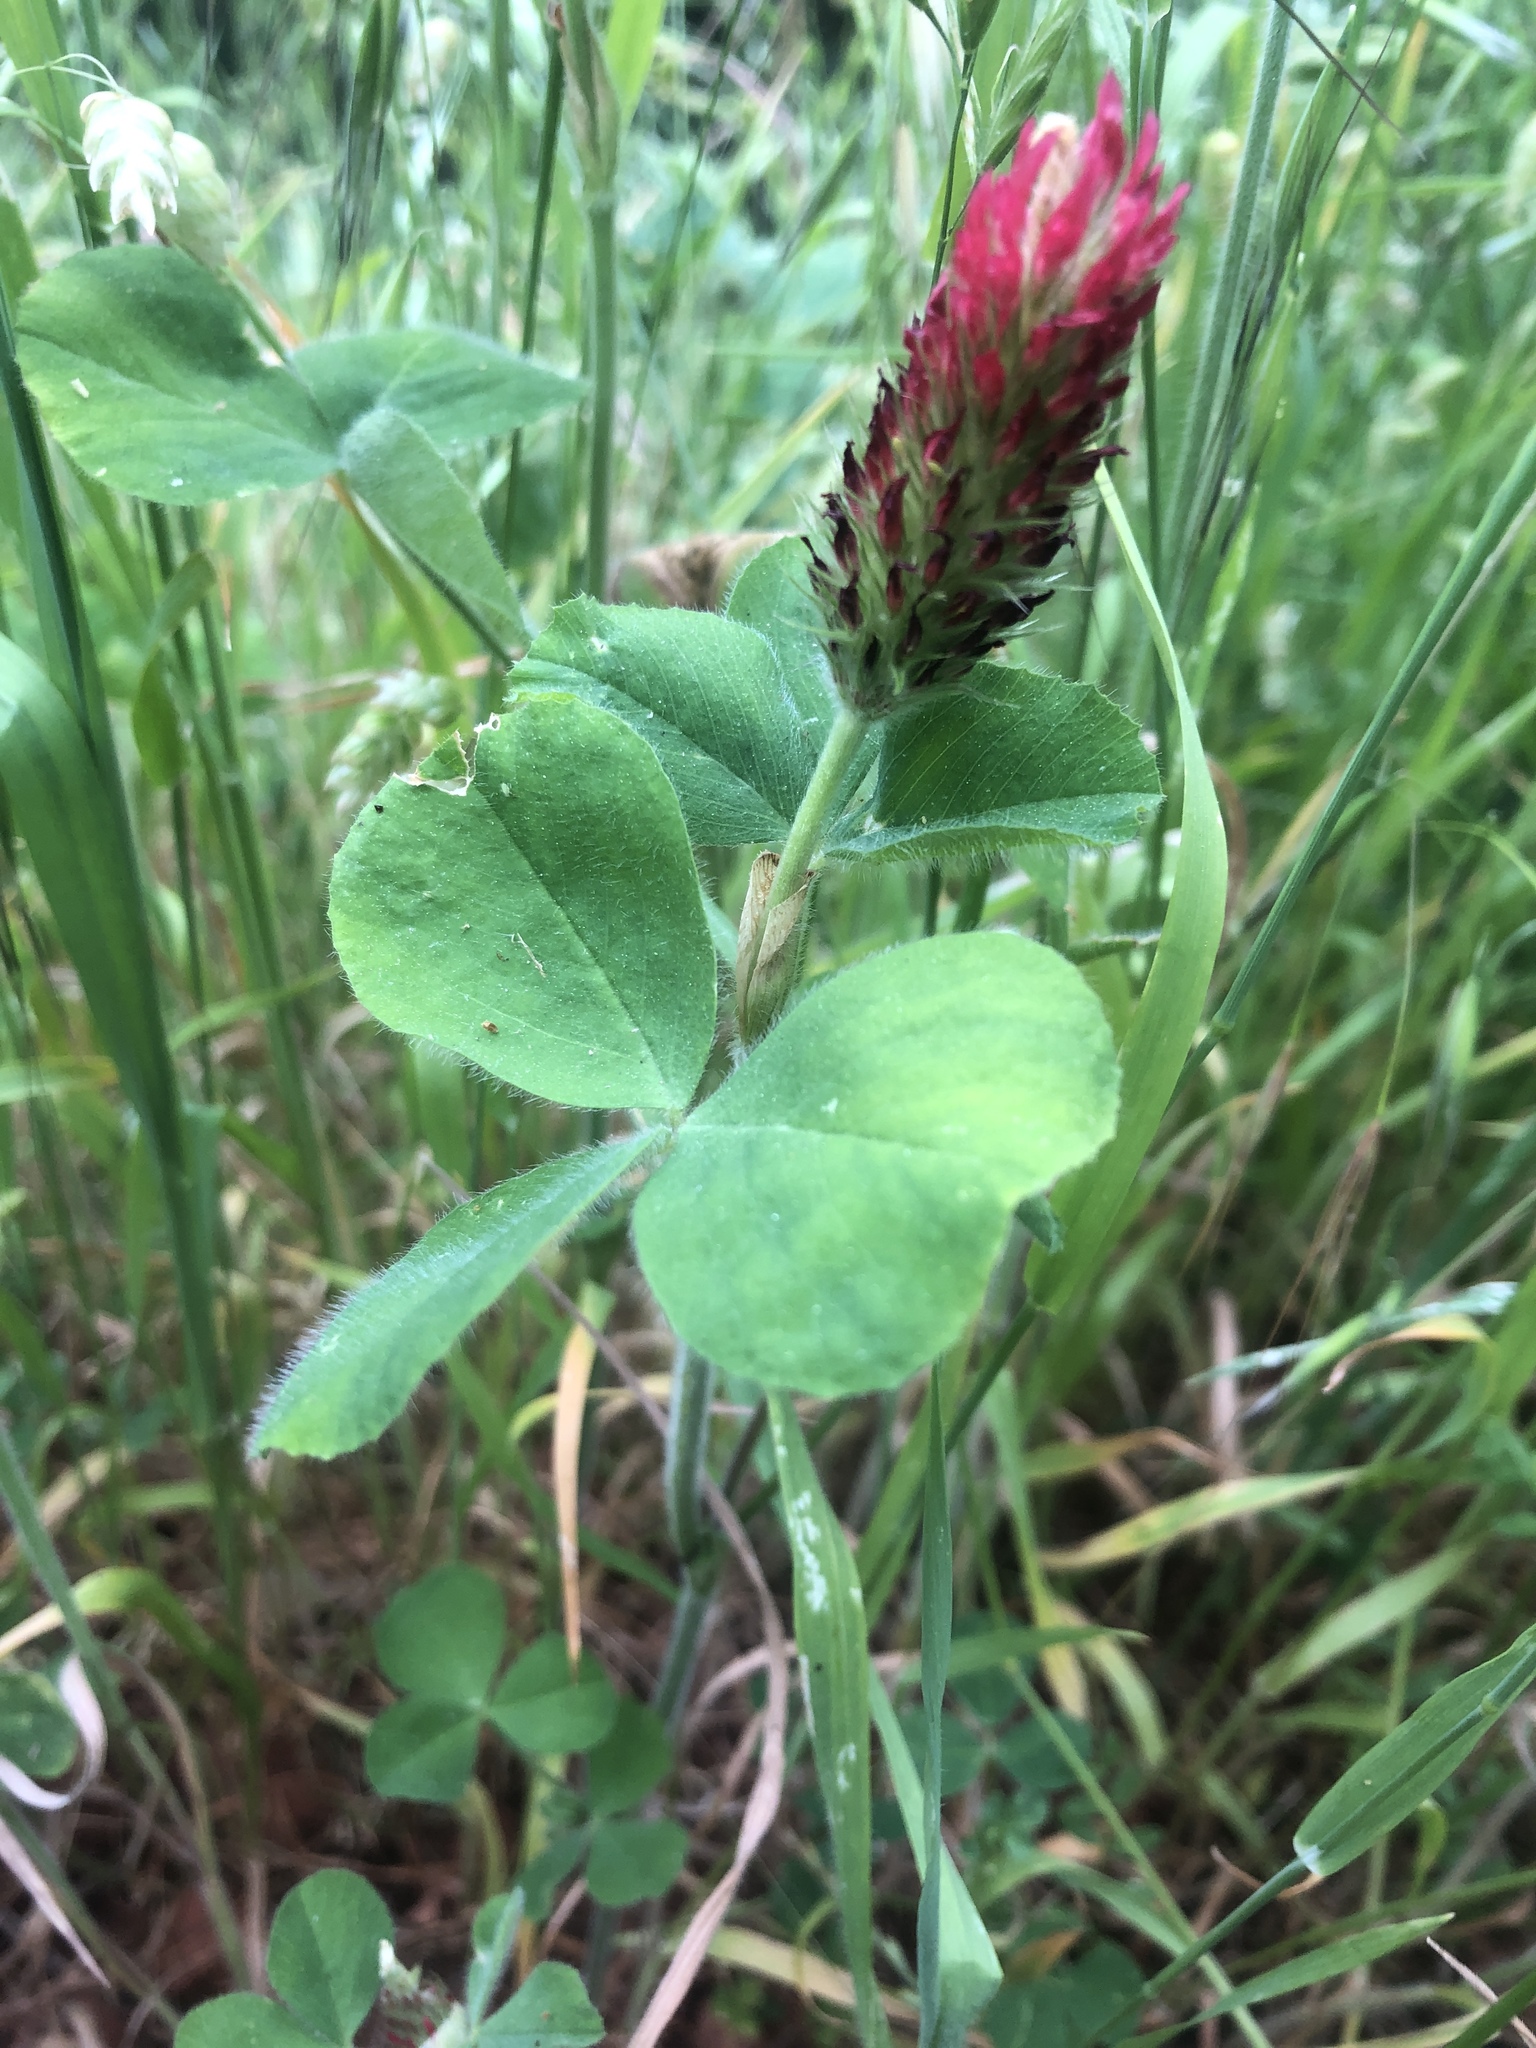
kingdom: Plantae
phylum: Tracheophyta
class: Magnoliopsida
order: Fabales
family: Fabaceae
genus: Trifolium
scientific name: Trifolium incarnatum
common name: Crimson clover
